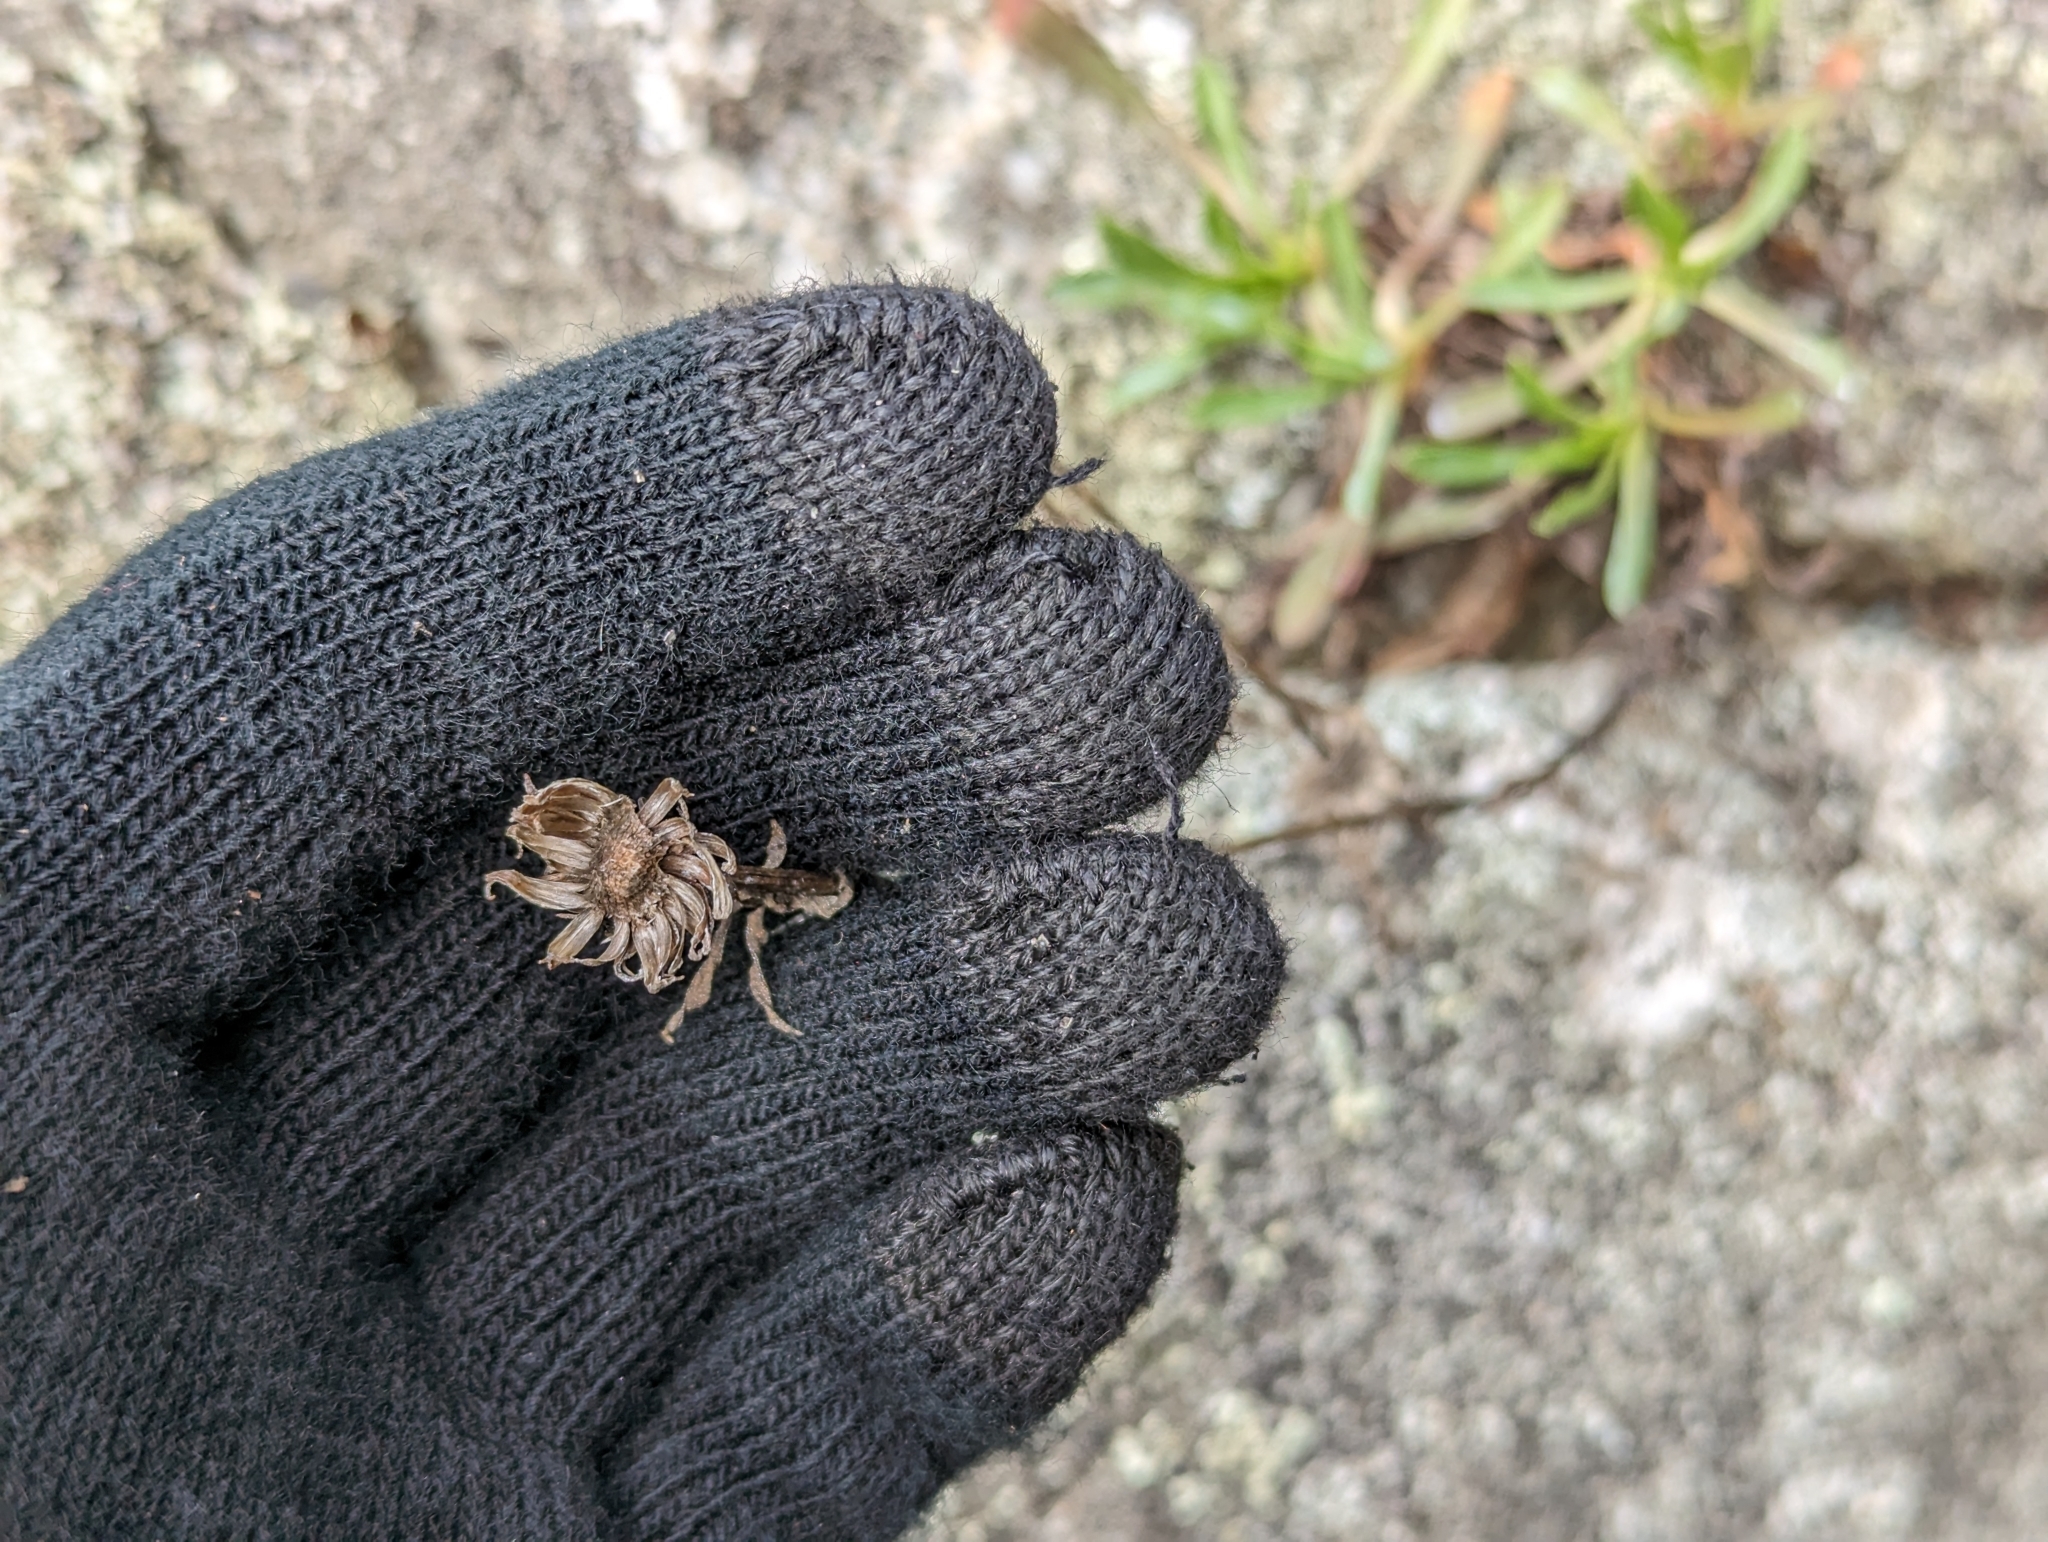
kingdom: Plantae
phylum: Tracheophyta
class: Magnoliopsida
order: Asterales
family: Asteraceae
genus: Grindelia
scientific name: Grindelia hirsutula
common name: Hairy gumweed
